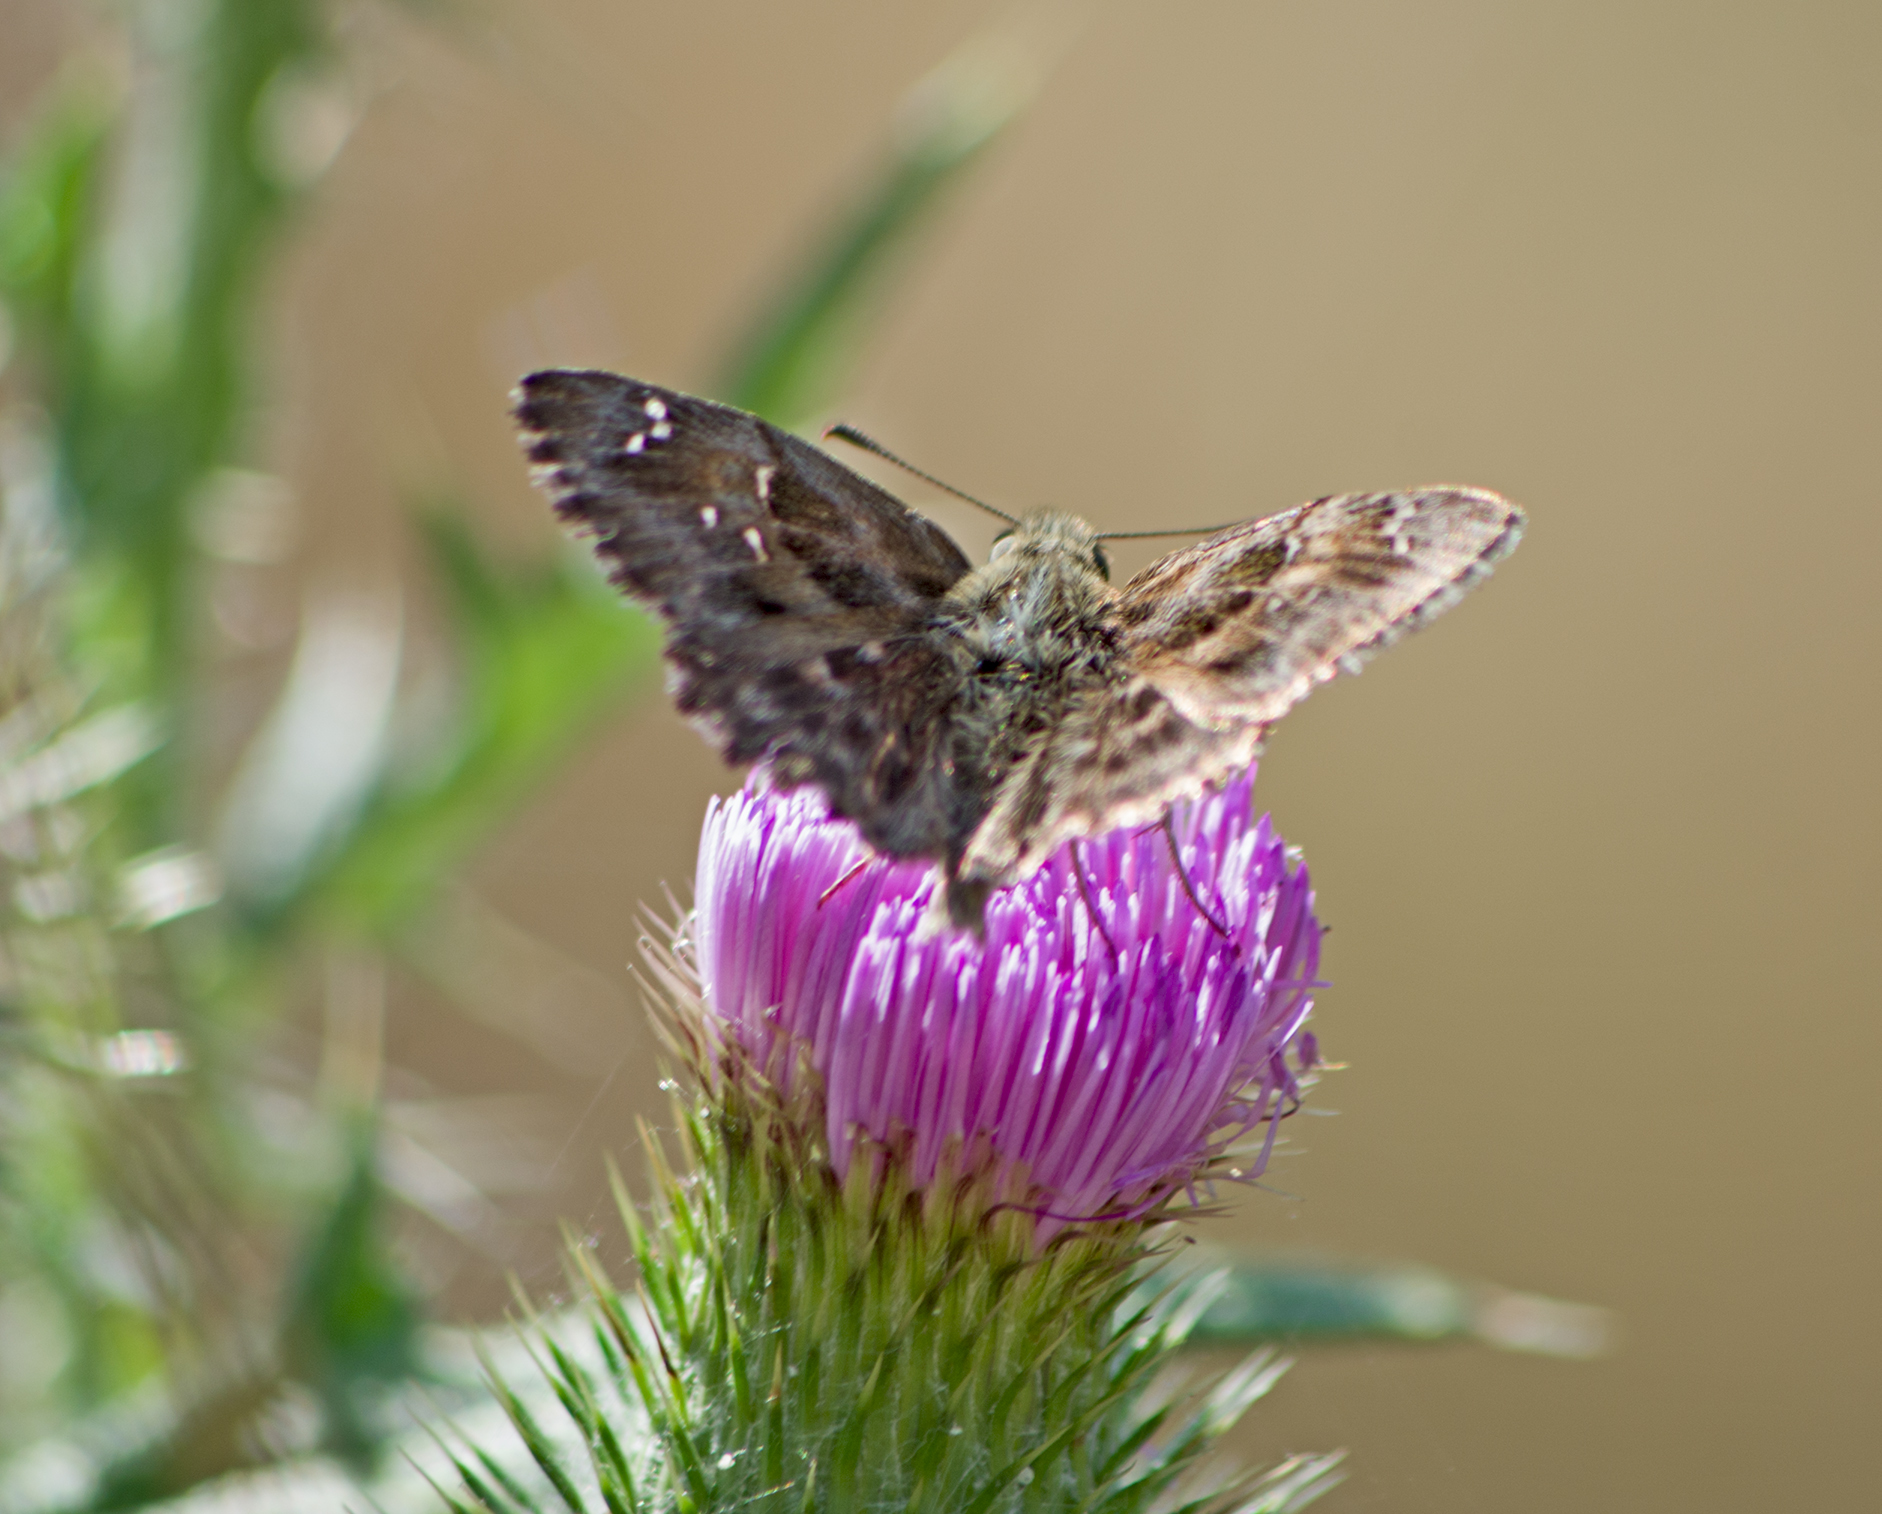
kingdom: Animalia
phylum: Arthropoda
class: Insecta
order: Lepidoptera
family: Hesperiidae
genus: Carcharodus
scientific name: Carcharodus alceae
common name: Mallow skipper
